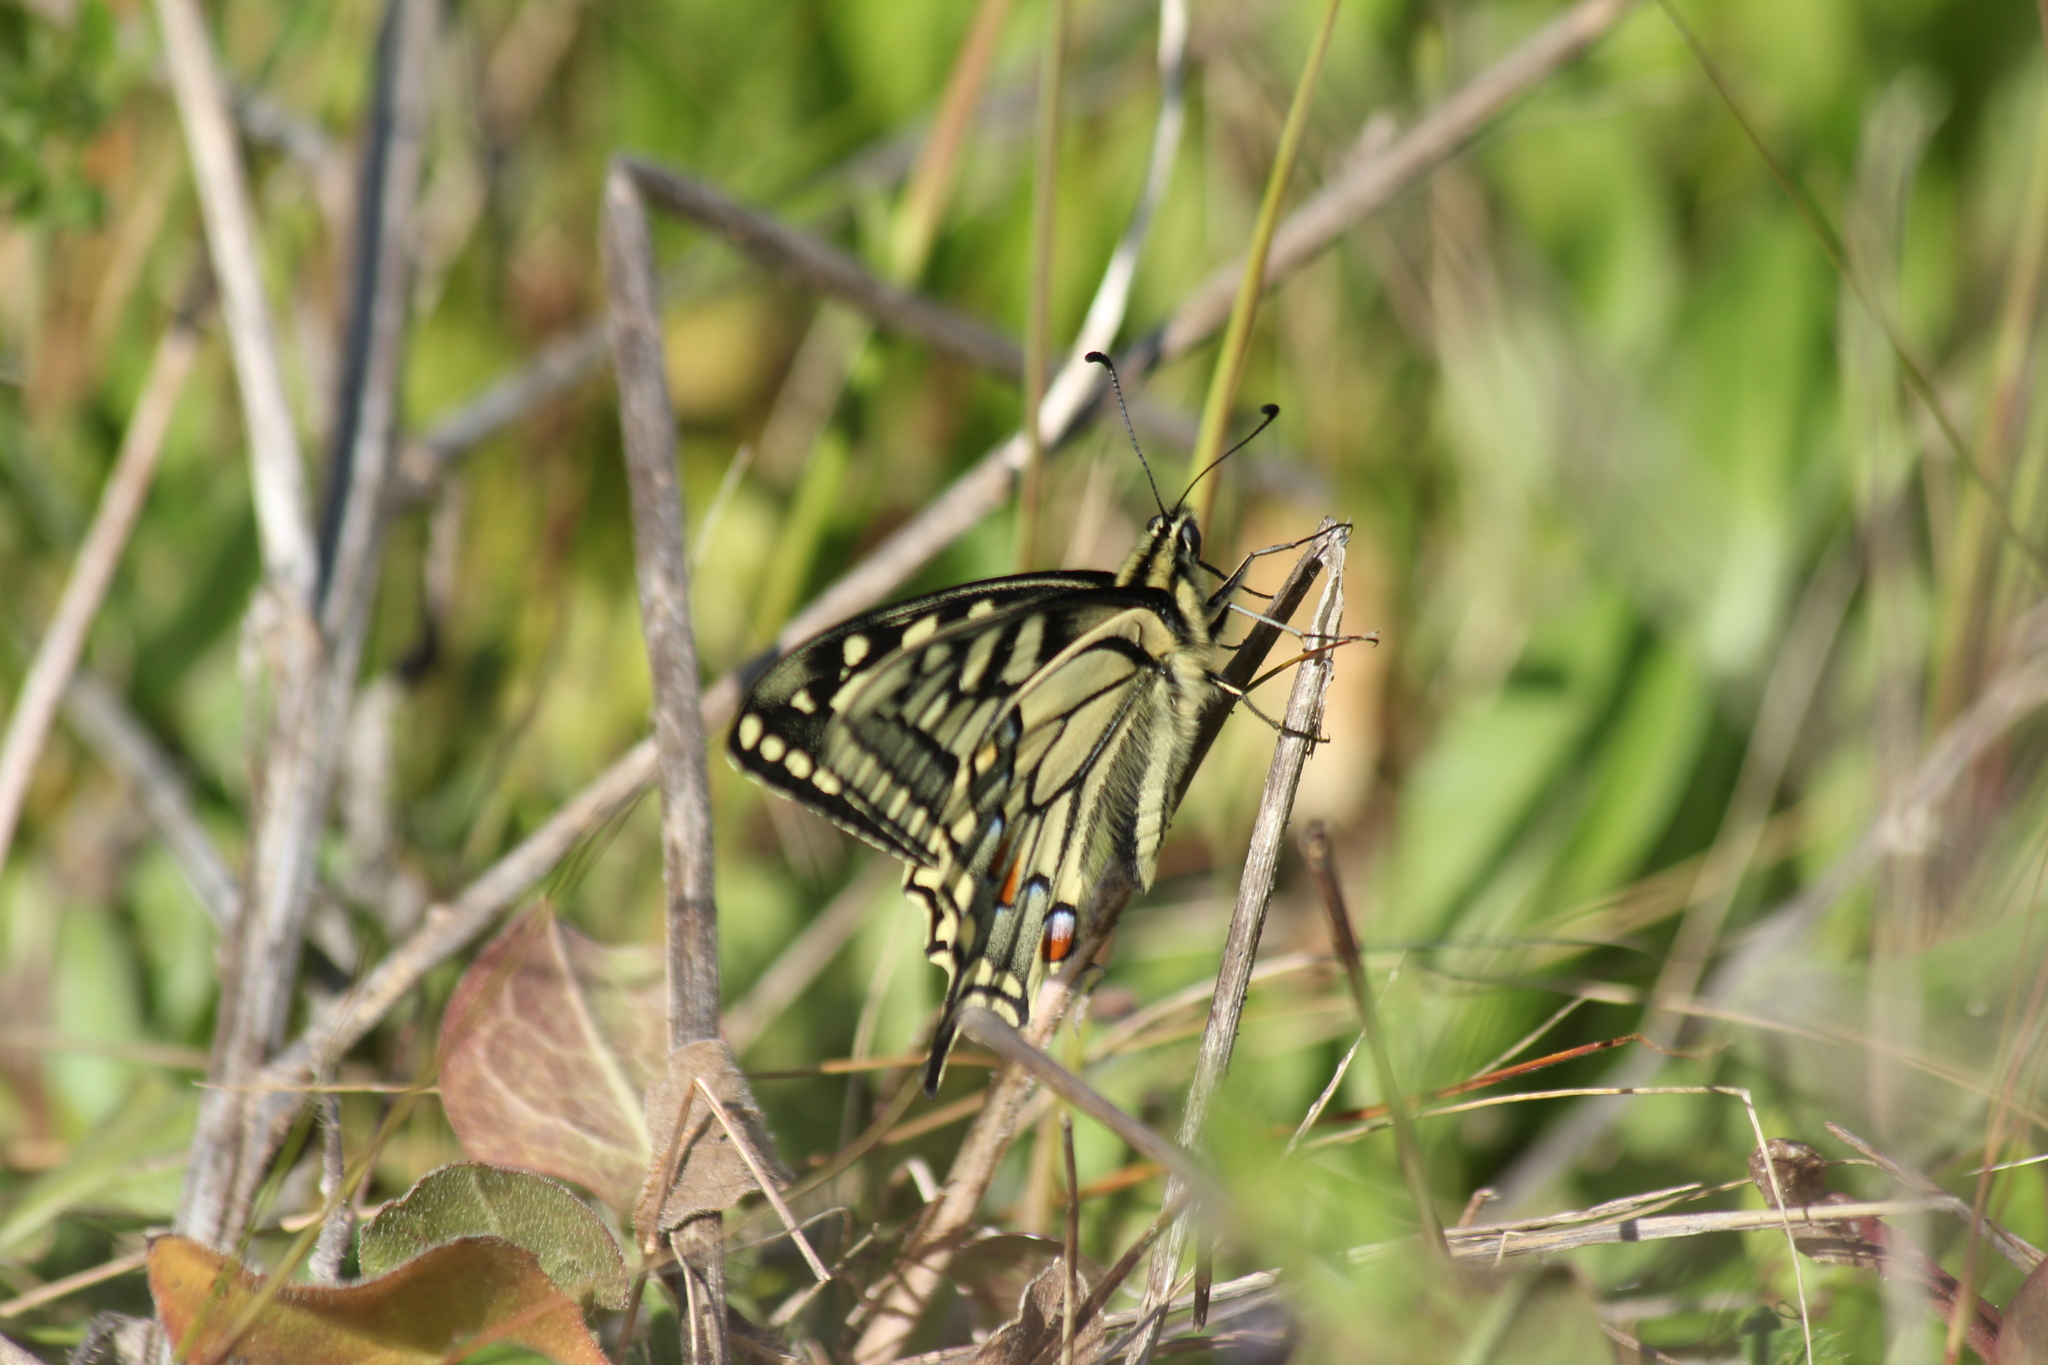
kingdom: Animalia
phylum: Arthropoda
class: Insecta
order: Lepidoptera
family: Papilionidae
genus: Papilio
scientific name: Papilio machaon
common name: Swallowtail
